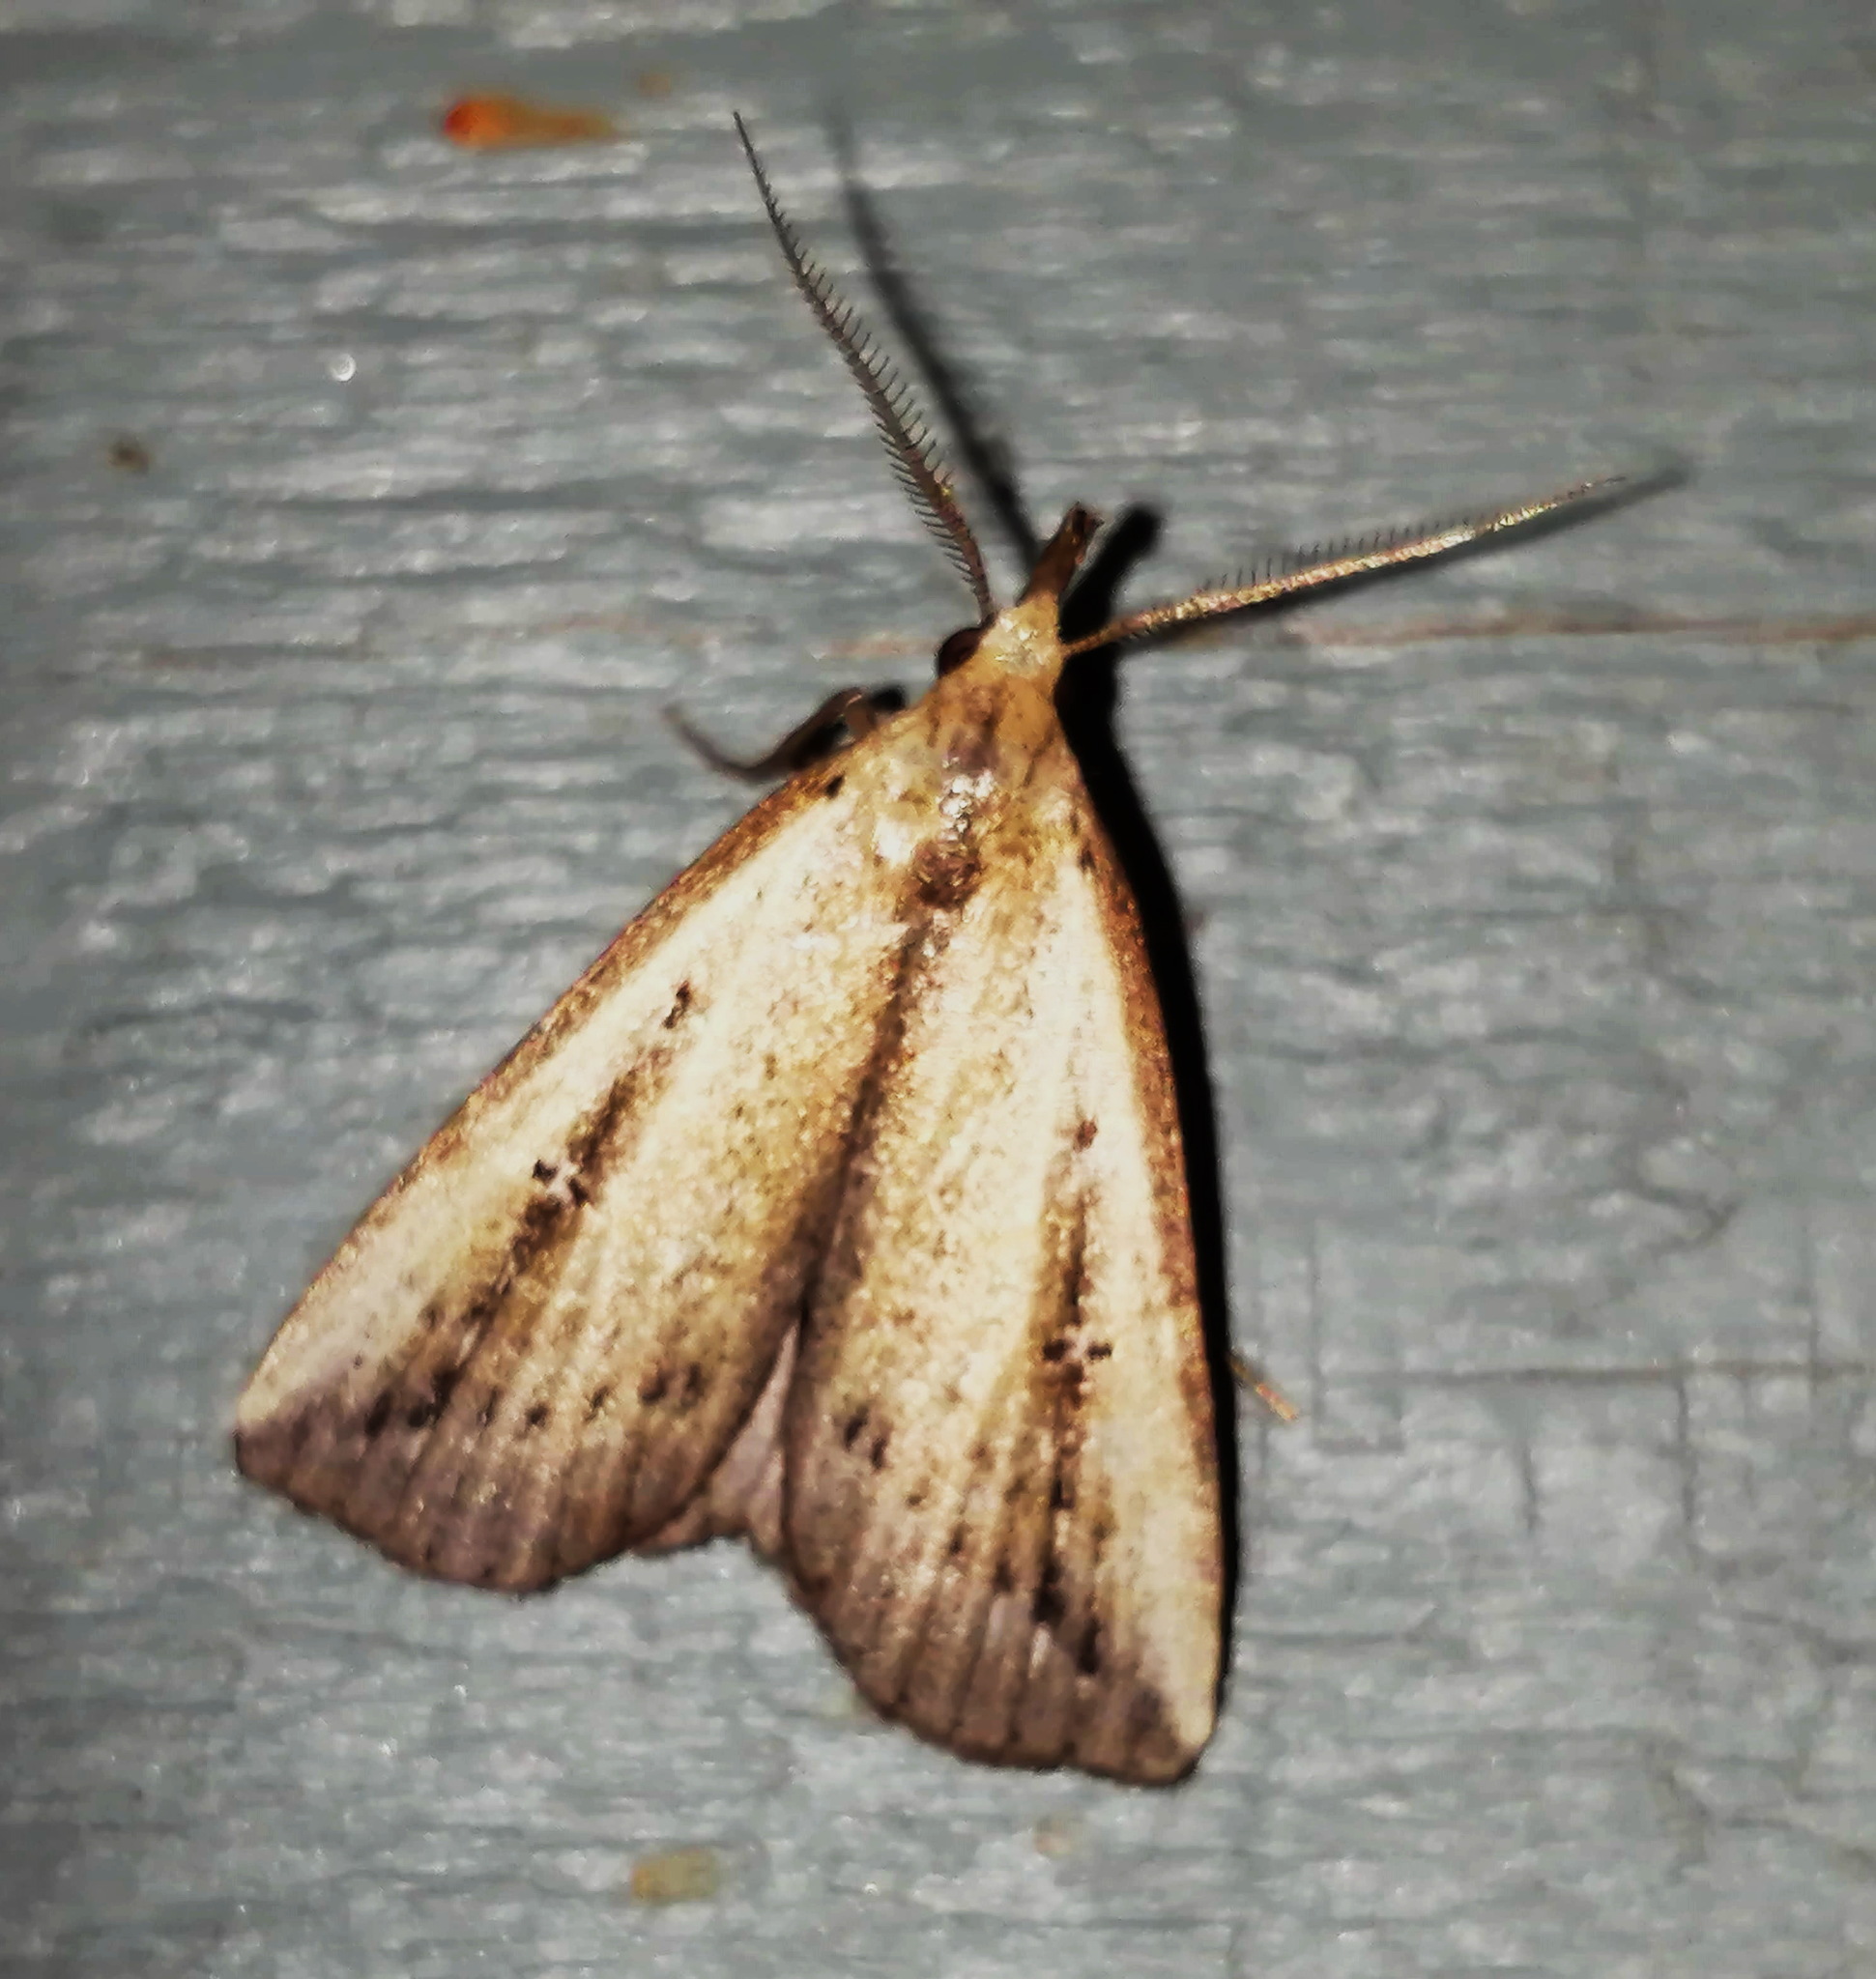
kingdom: Animalia
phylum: Arthropoda
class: Insecta
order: Lepidoptera
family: Erebidae
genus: Macrochilo
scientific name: Macrochilo orciferalis
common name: Bronzy owlet
